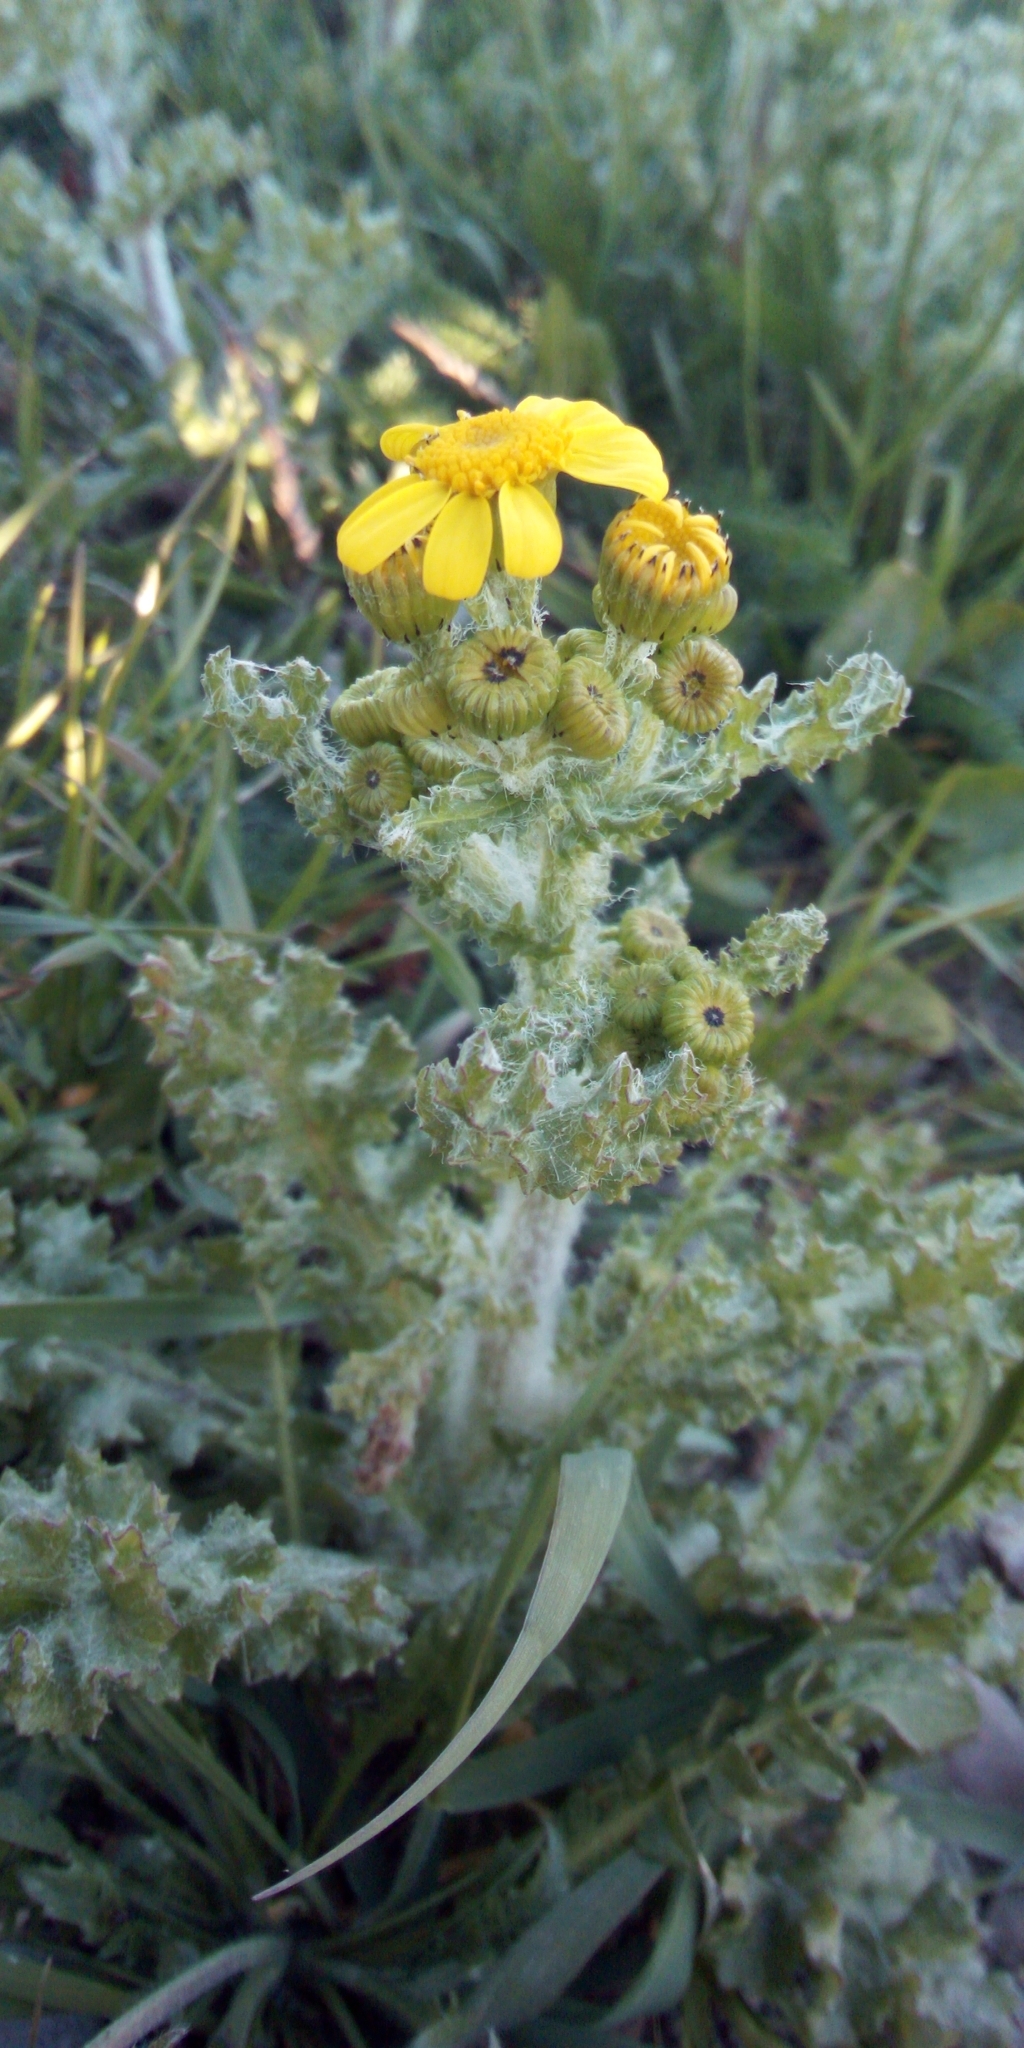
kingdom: Plantae
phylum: Tracheophyta
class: Magnoliopsida
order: Asterales
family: Asteraceae
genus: Senecio
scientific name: Senecio vernalis
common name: Eastern groundsel
